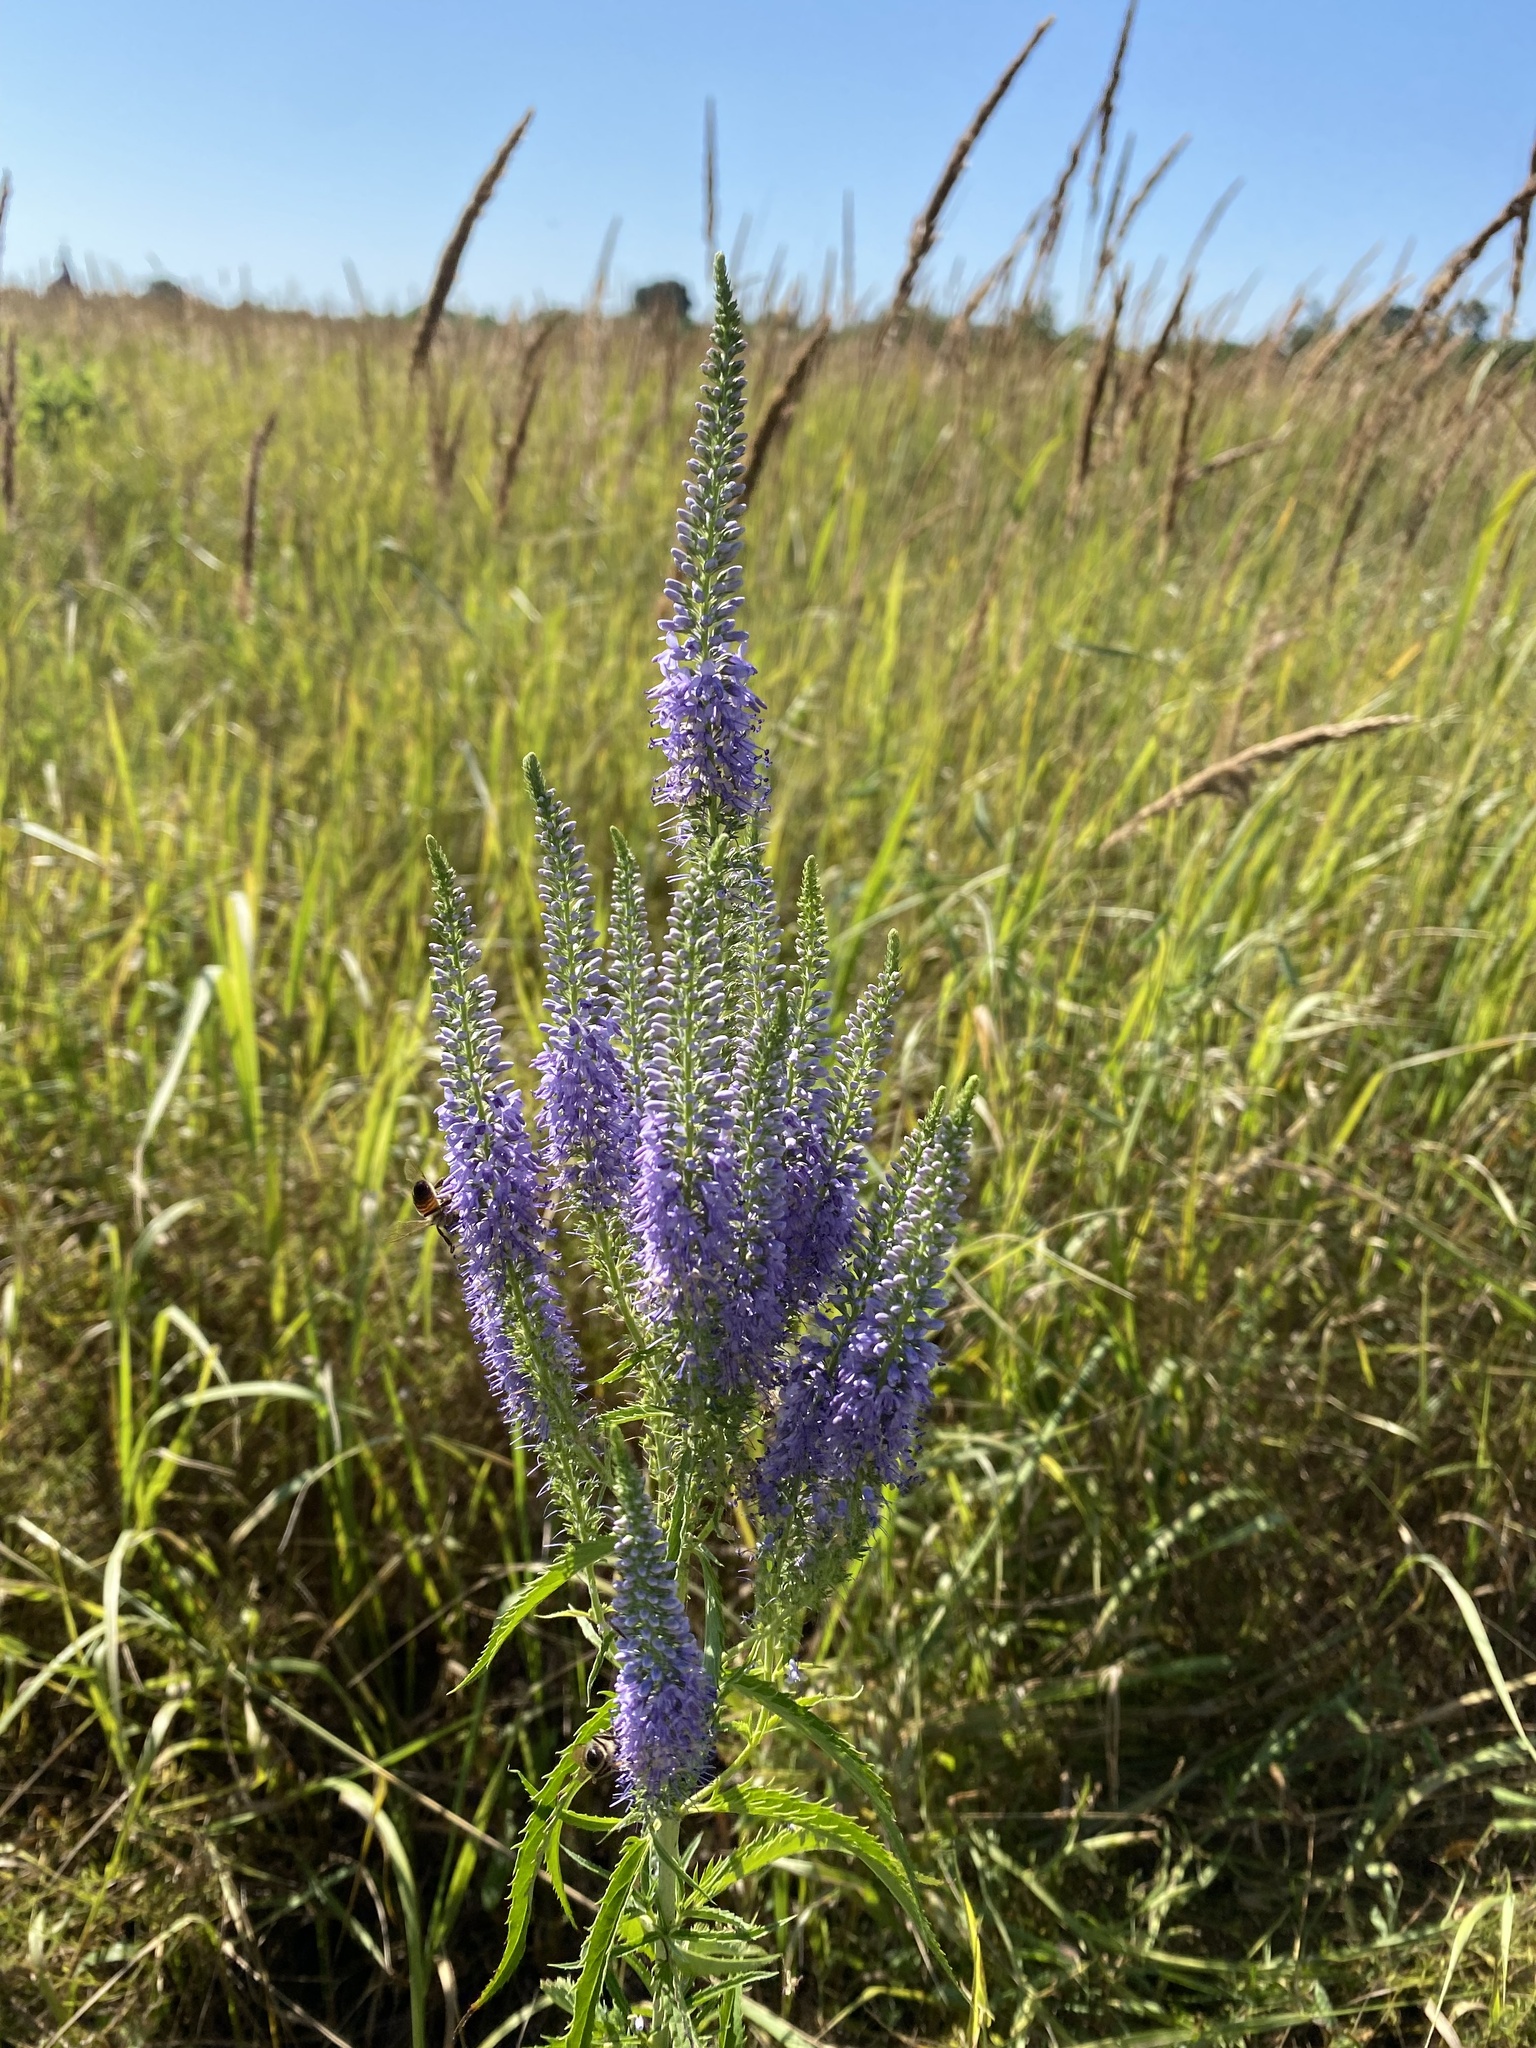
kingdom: Plantae
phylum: Tracheophyta
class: Magnoliopsida
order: Lamiales
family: Plantaginaceae
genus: Veronica
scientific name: Veronica longifolia
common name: Garden speedwell
